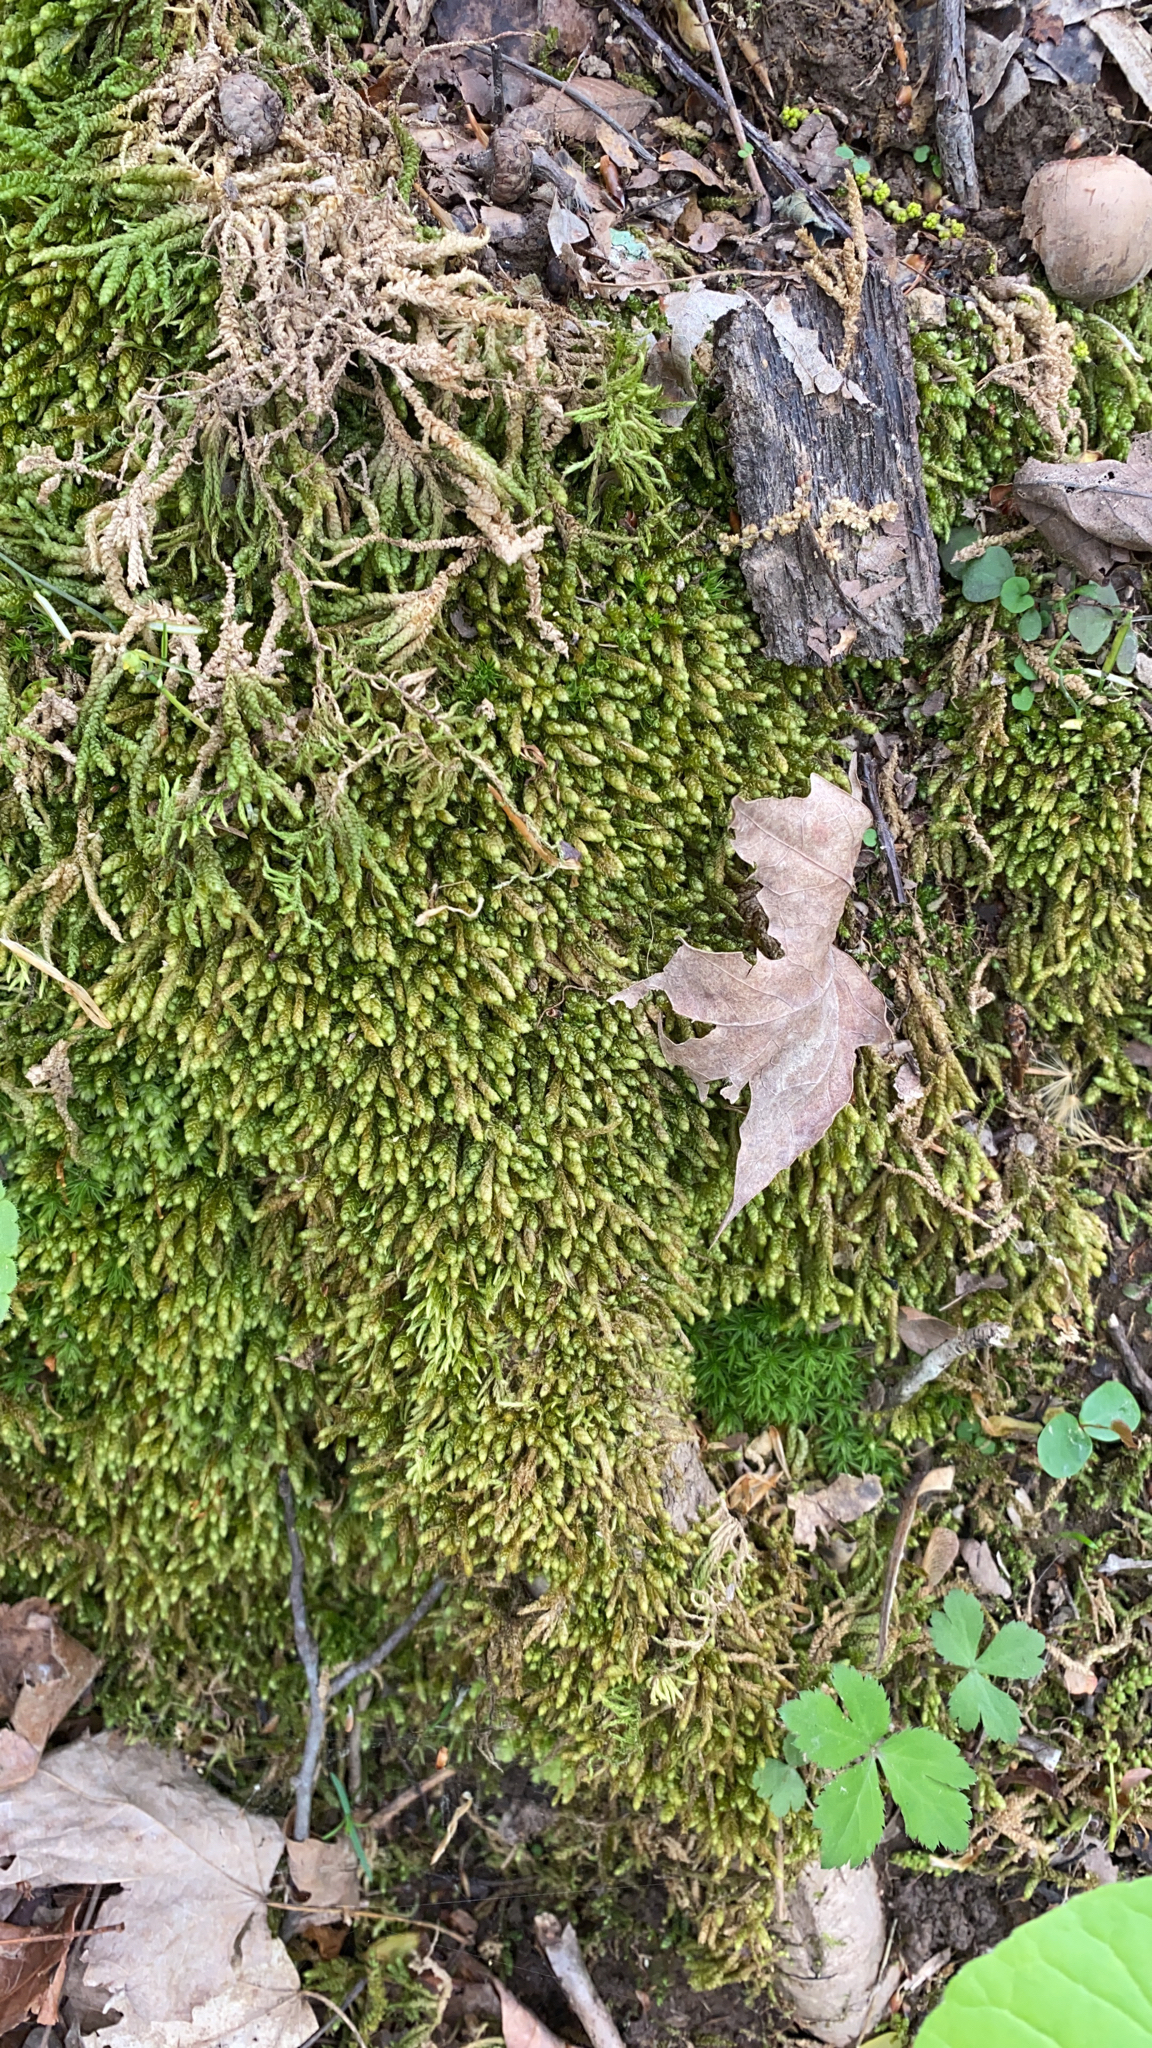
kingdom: Plantae
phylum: Bryophyta
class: Bryopsida
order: Hypnales
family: Brachytheciaceae
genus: Bryoandersonia
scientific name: Bryoandersonia illecebra
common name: Spoon-leaved moss
